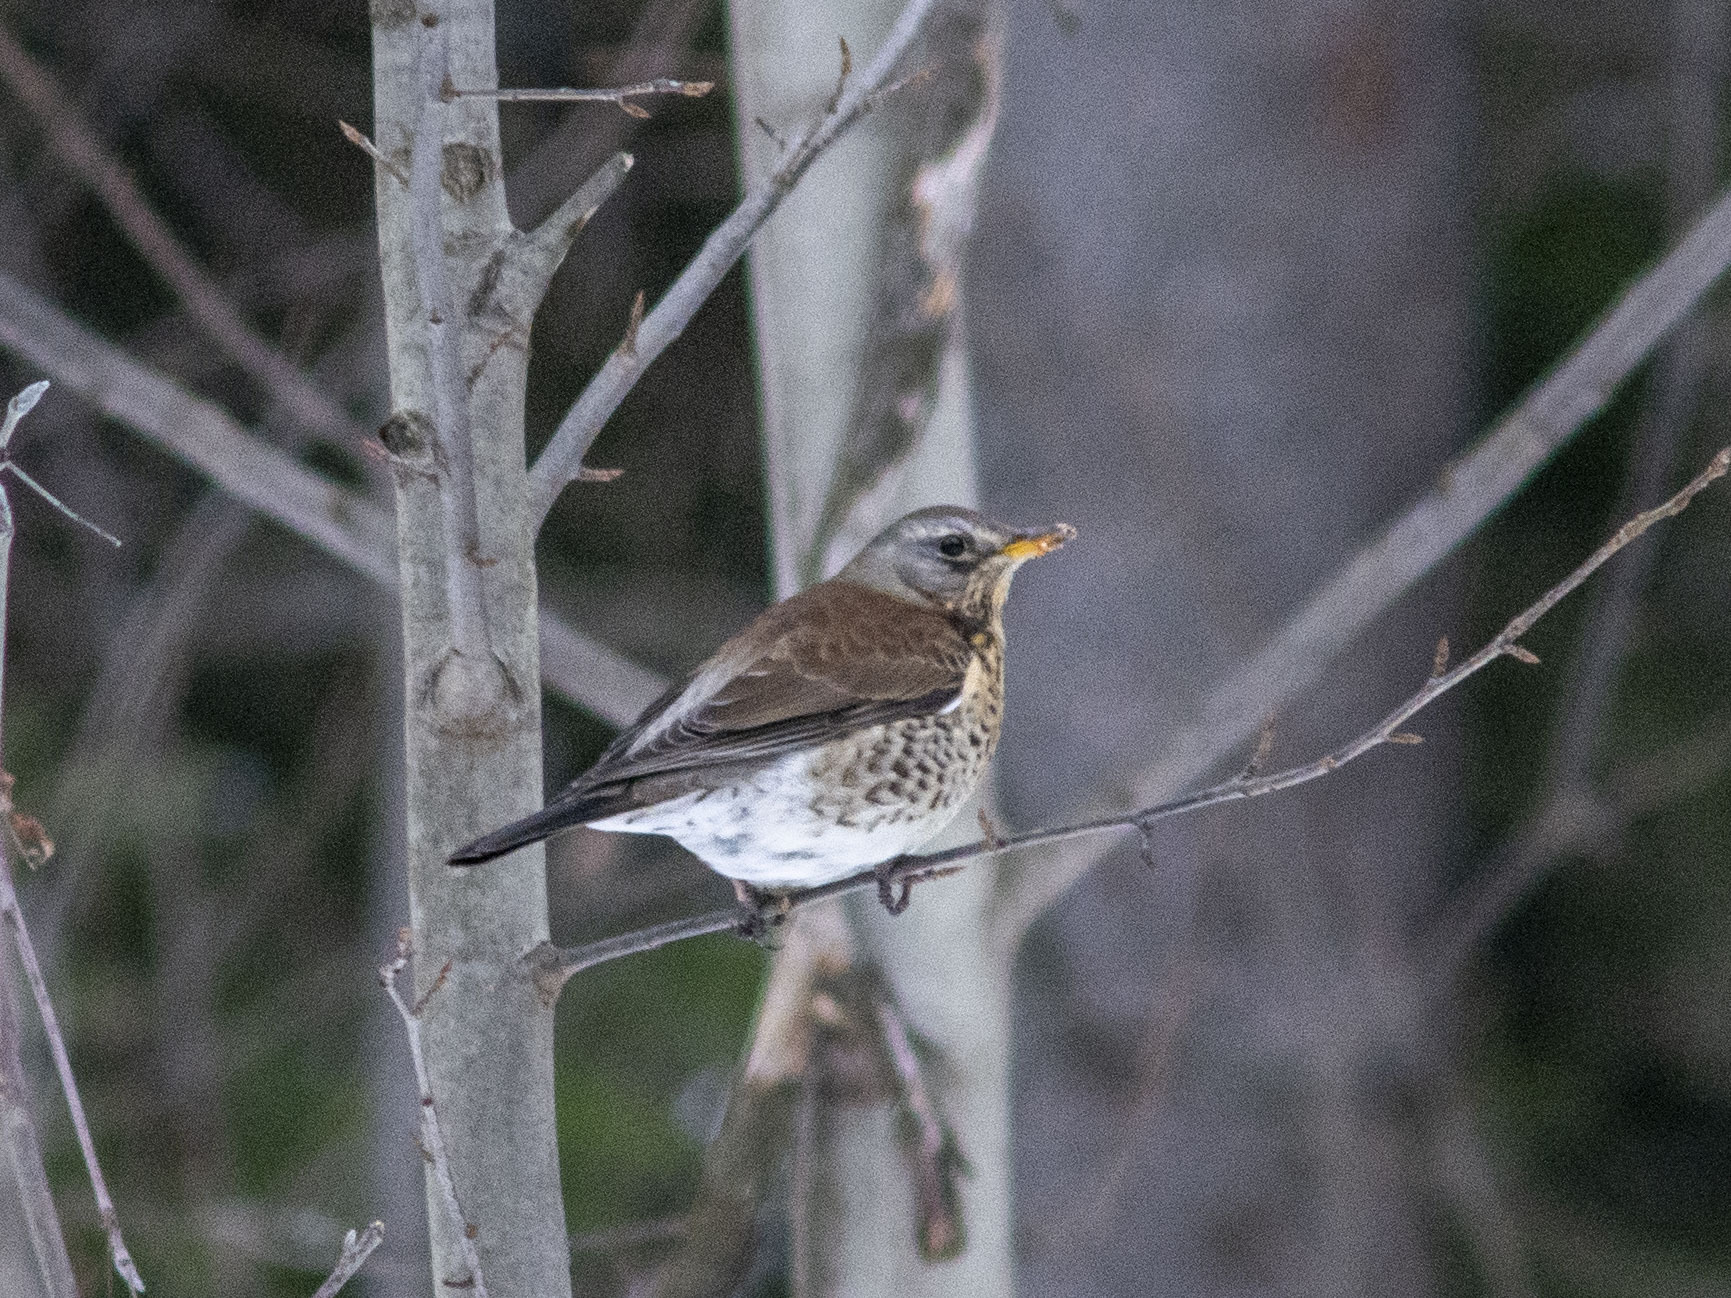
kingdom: Animalia
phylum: Chordata
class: Aves
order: Passeriformes
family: Turdidae
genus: Turdus
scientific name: Turdus pilaris
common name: Fieldfare
